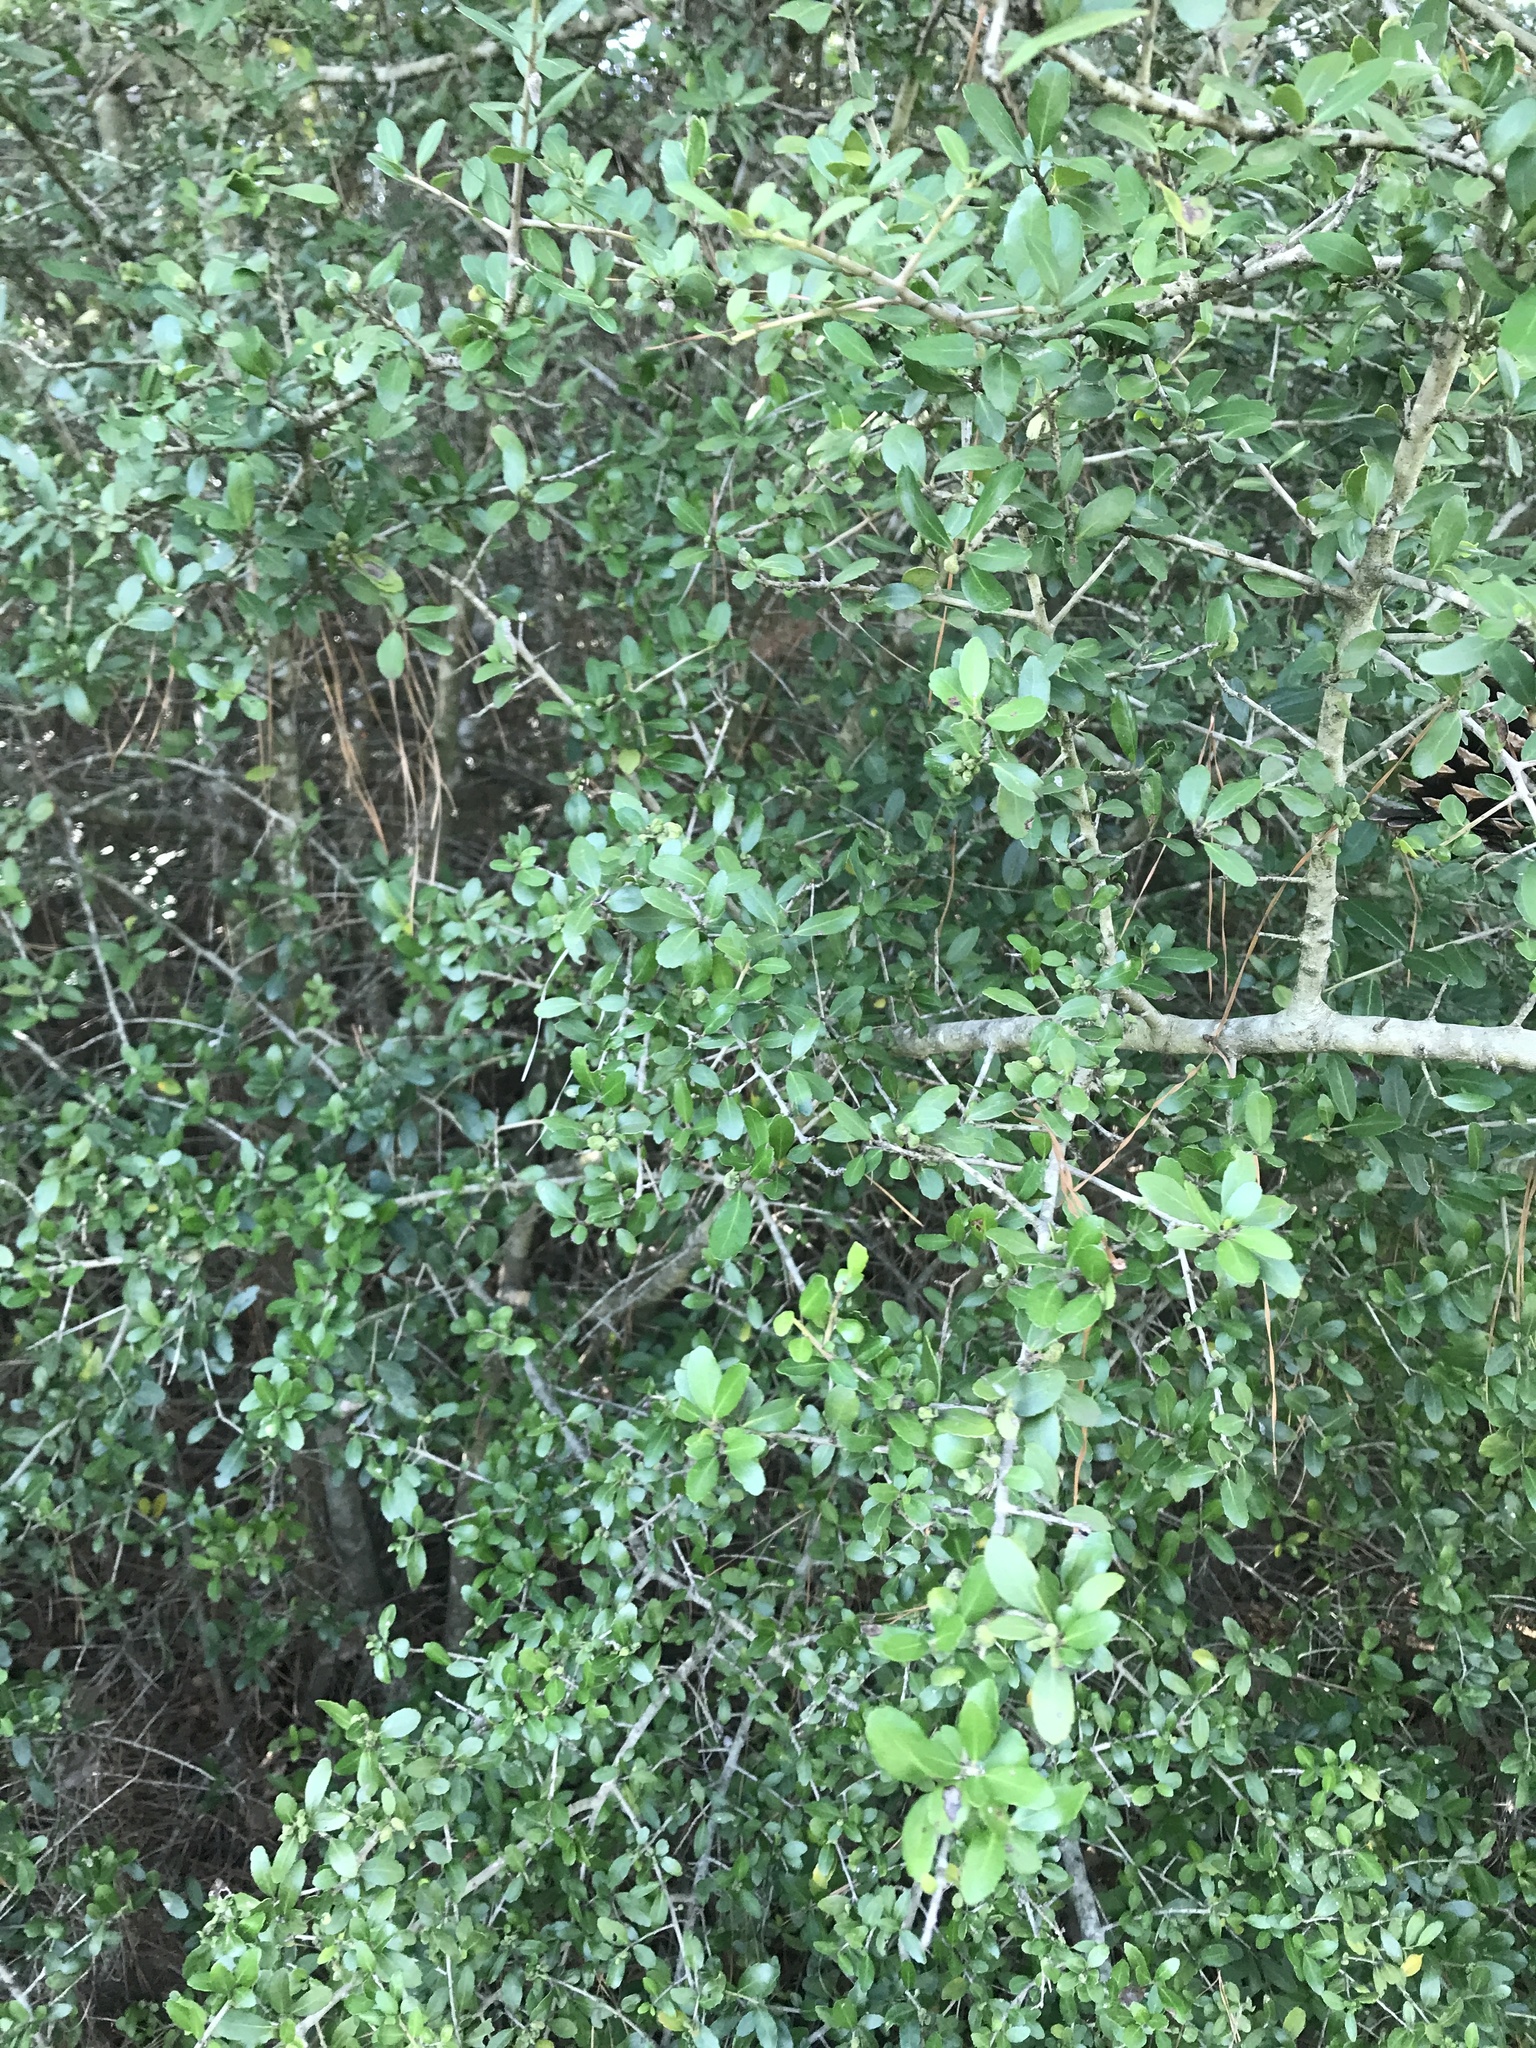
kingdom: Plantae
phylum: Tracheophyta
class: Magnoliopsida
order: Aquifoliales
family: Aquifoliaceae
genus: Ilex
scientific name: Ilex vomitoria
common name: Yaupon holly
